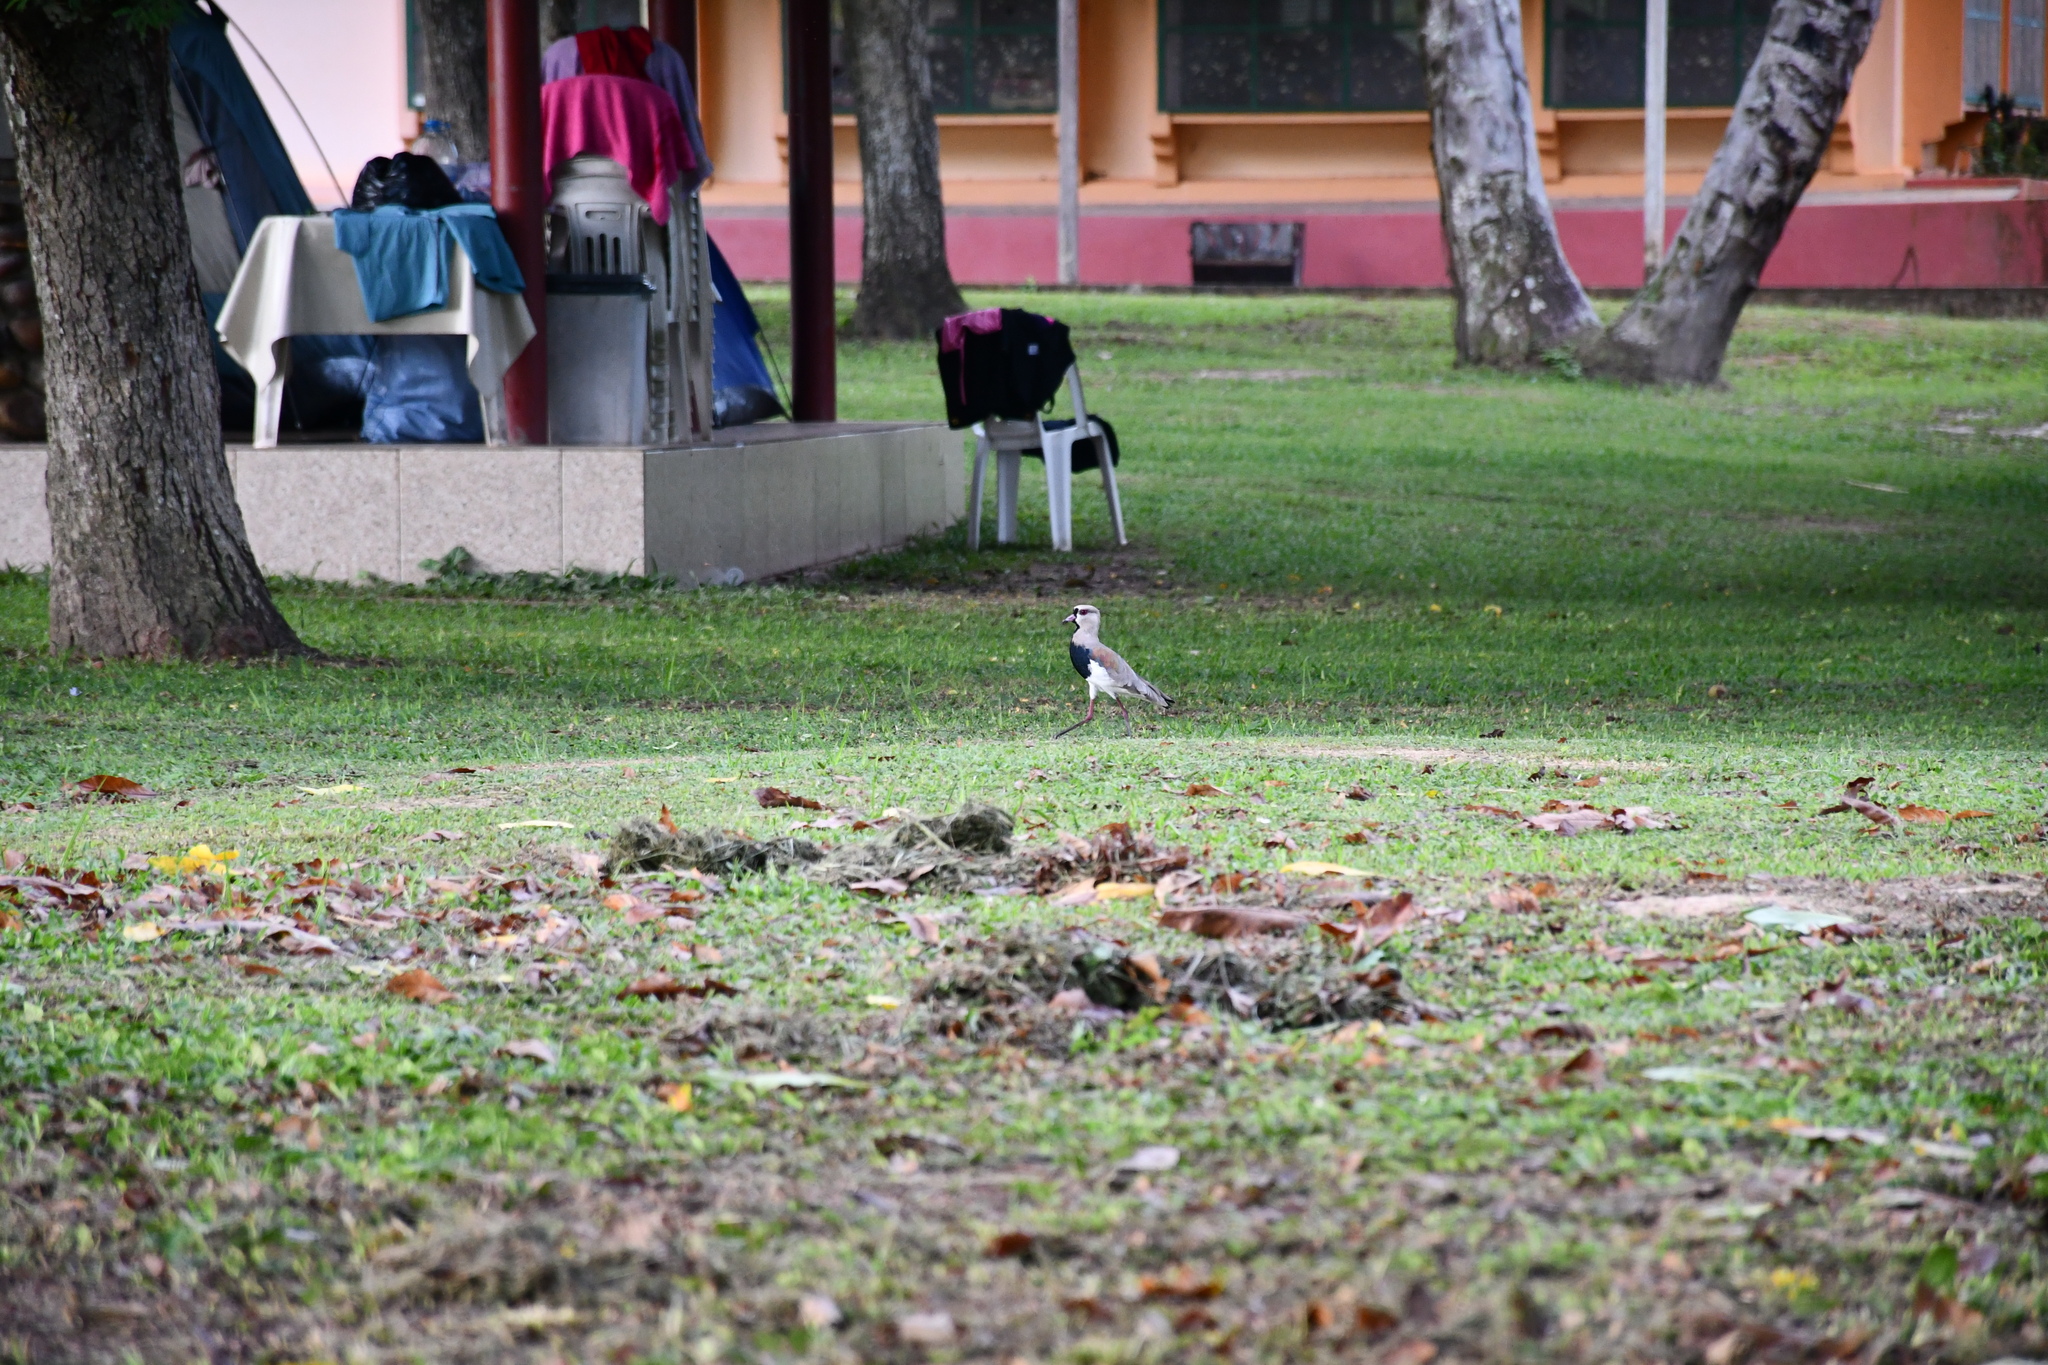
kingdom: Animalia
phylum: Chordata
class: Aves
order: Charadriiformes
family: Charadriidae
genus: Vanellus
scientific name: Vanellus chilensis
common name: Southern lapwing
